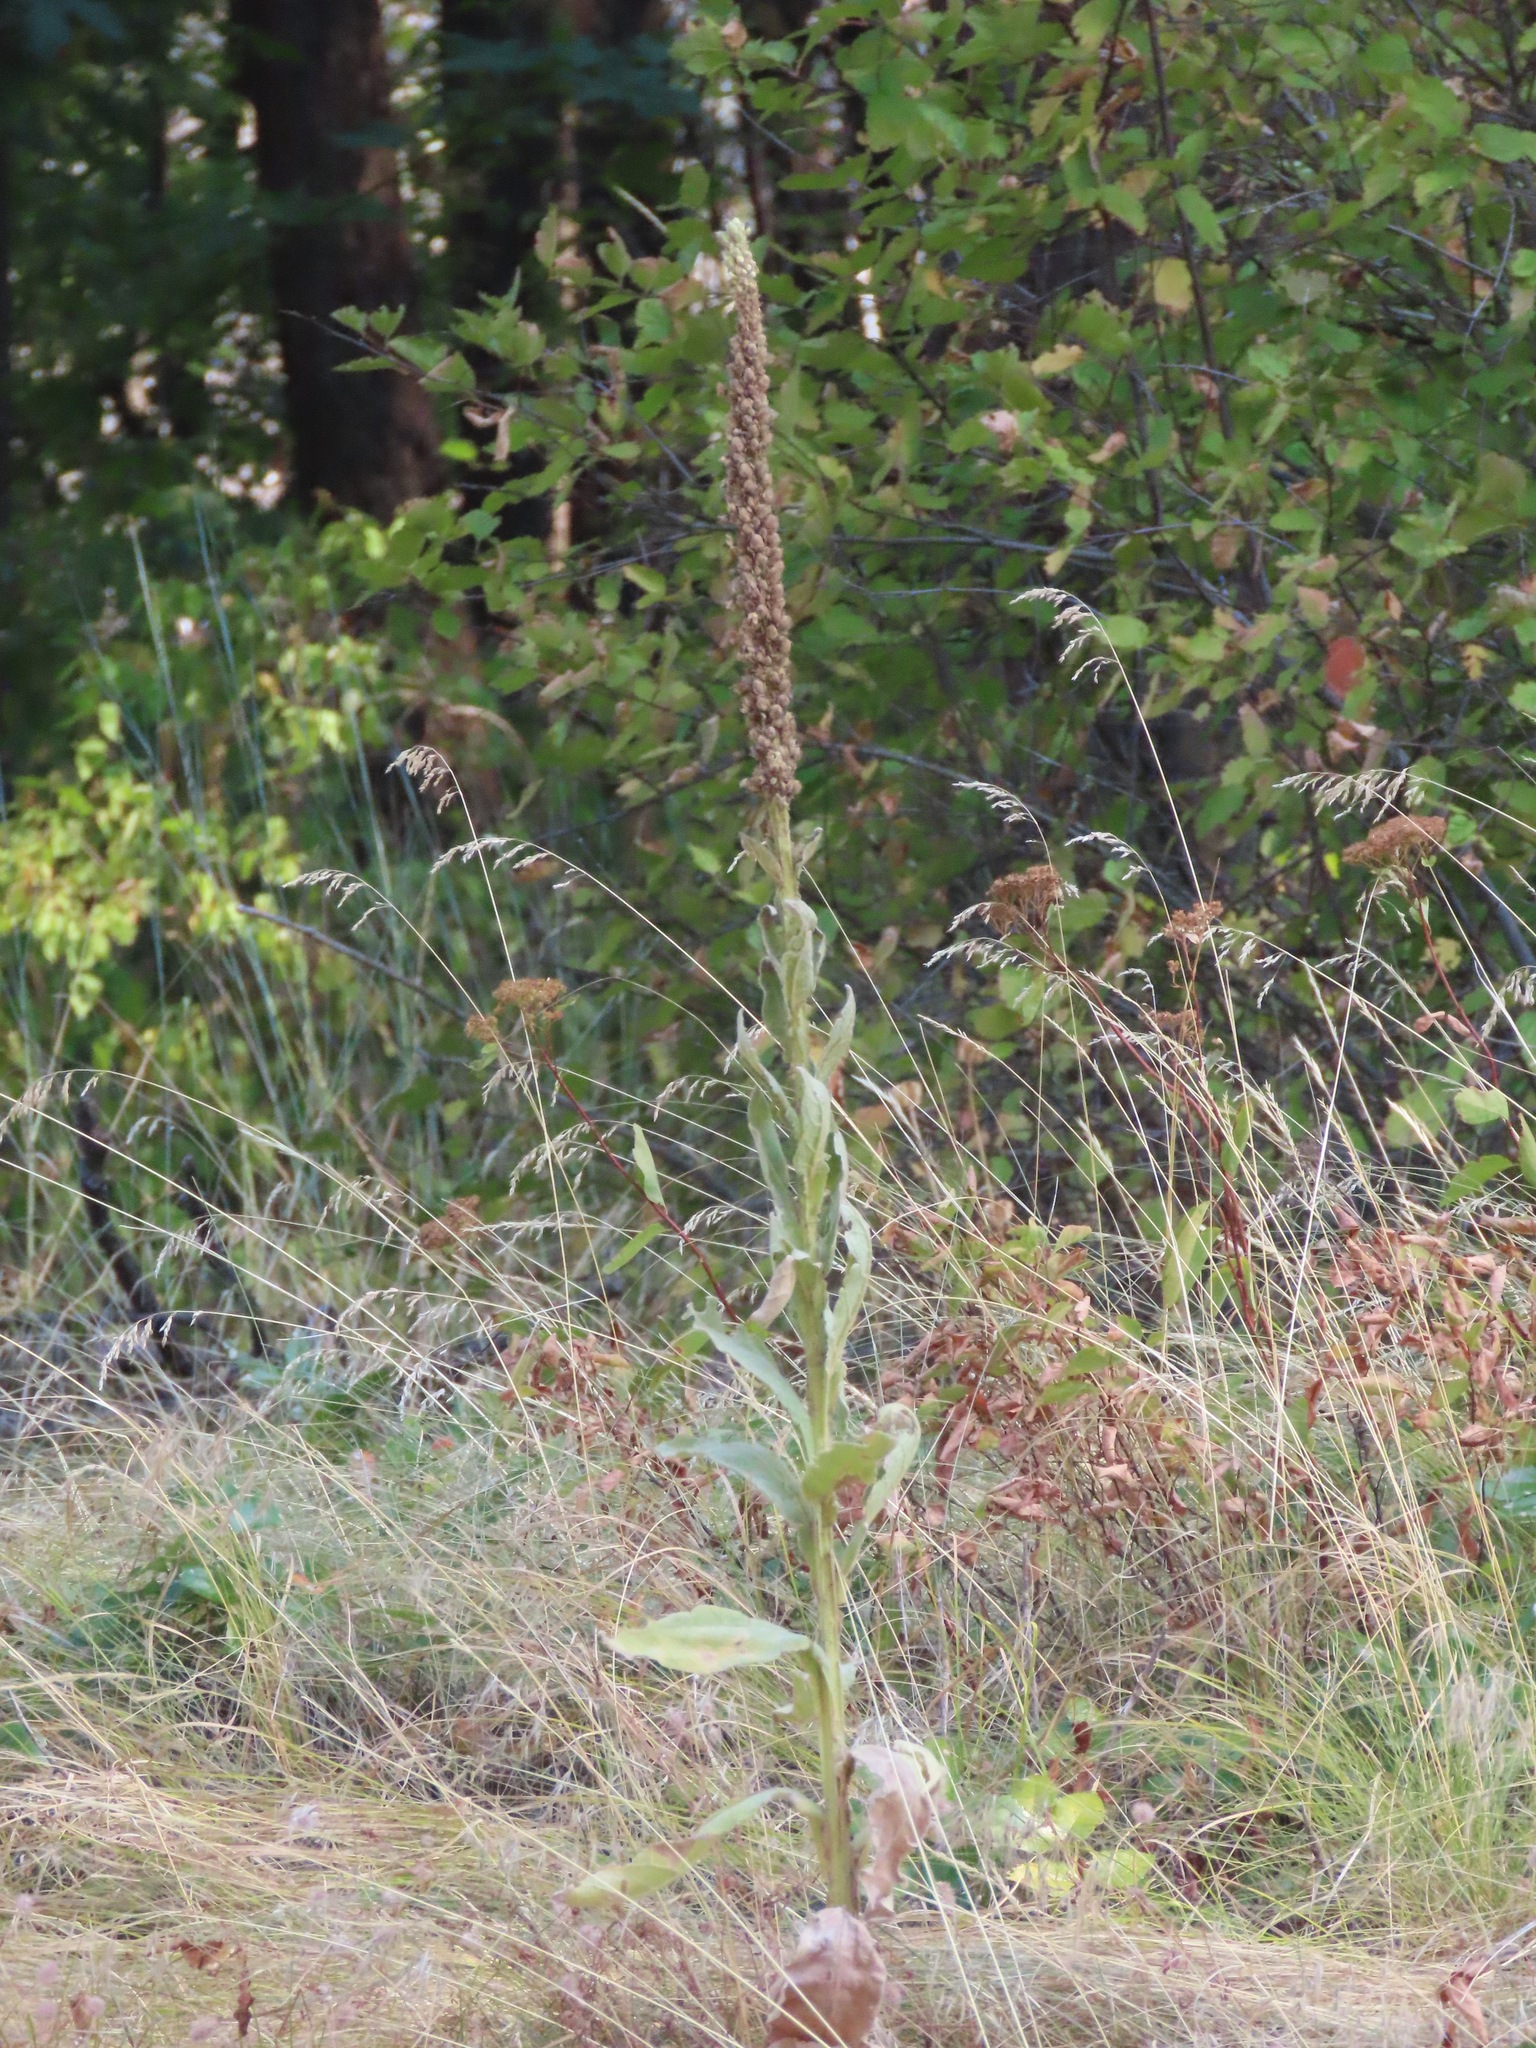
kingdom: Plantae
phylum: Tracheophyta
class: Magnoliopsida
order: Lamiales
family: Scrophulariaceae
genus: Verbascum
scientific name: Verbascum thapsus
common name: Common mullein
